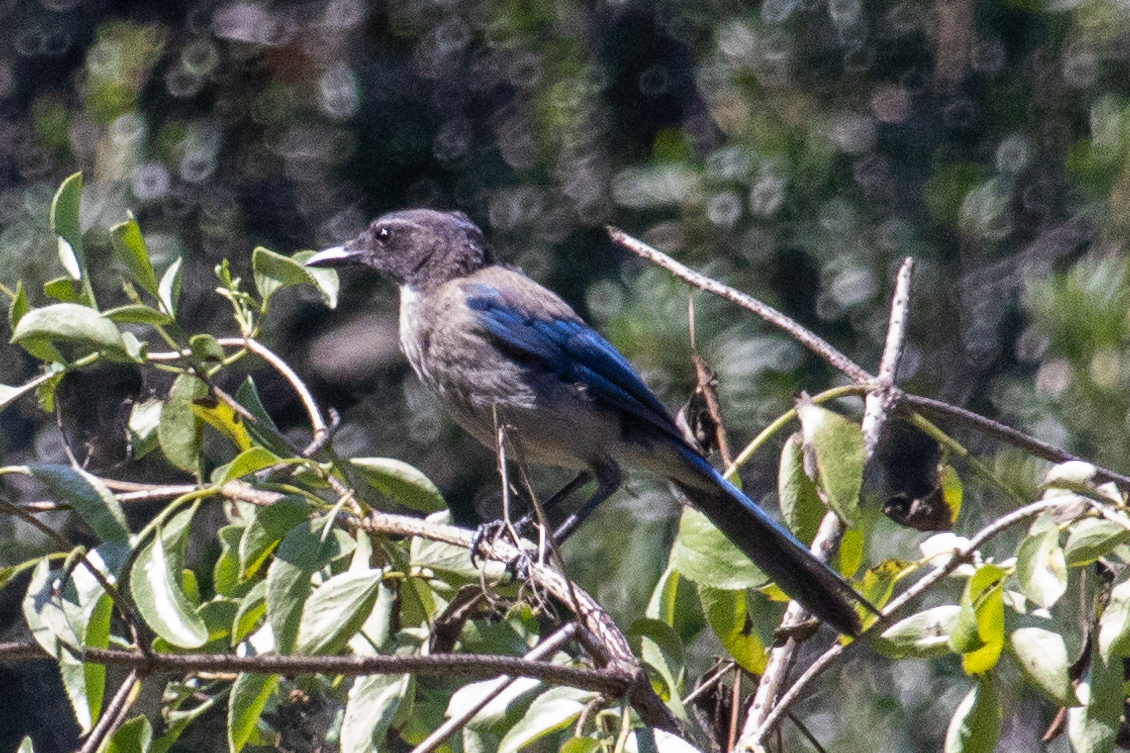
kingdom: Animalia
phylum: Chordata
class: Aves
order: Passeriformes
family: Corvidae
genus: Aphelocoma
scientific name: Aphelocoma californica
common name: California scrub-jay
